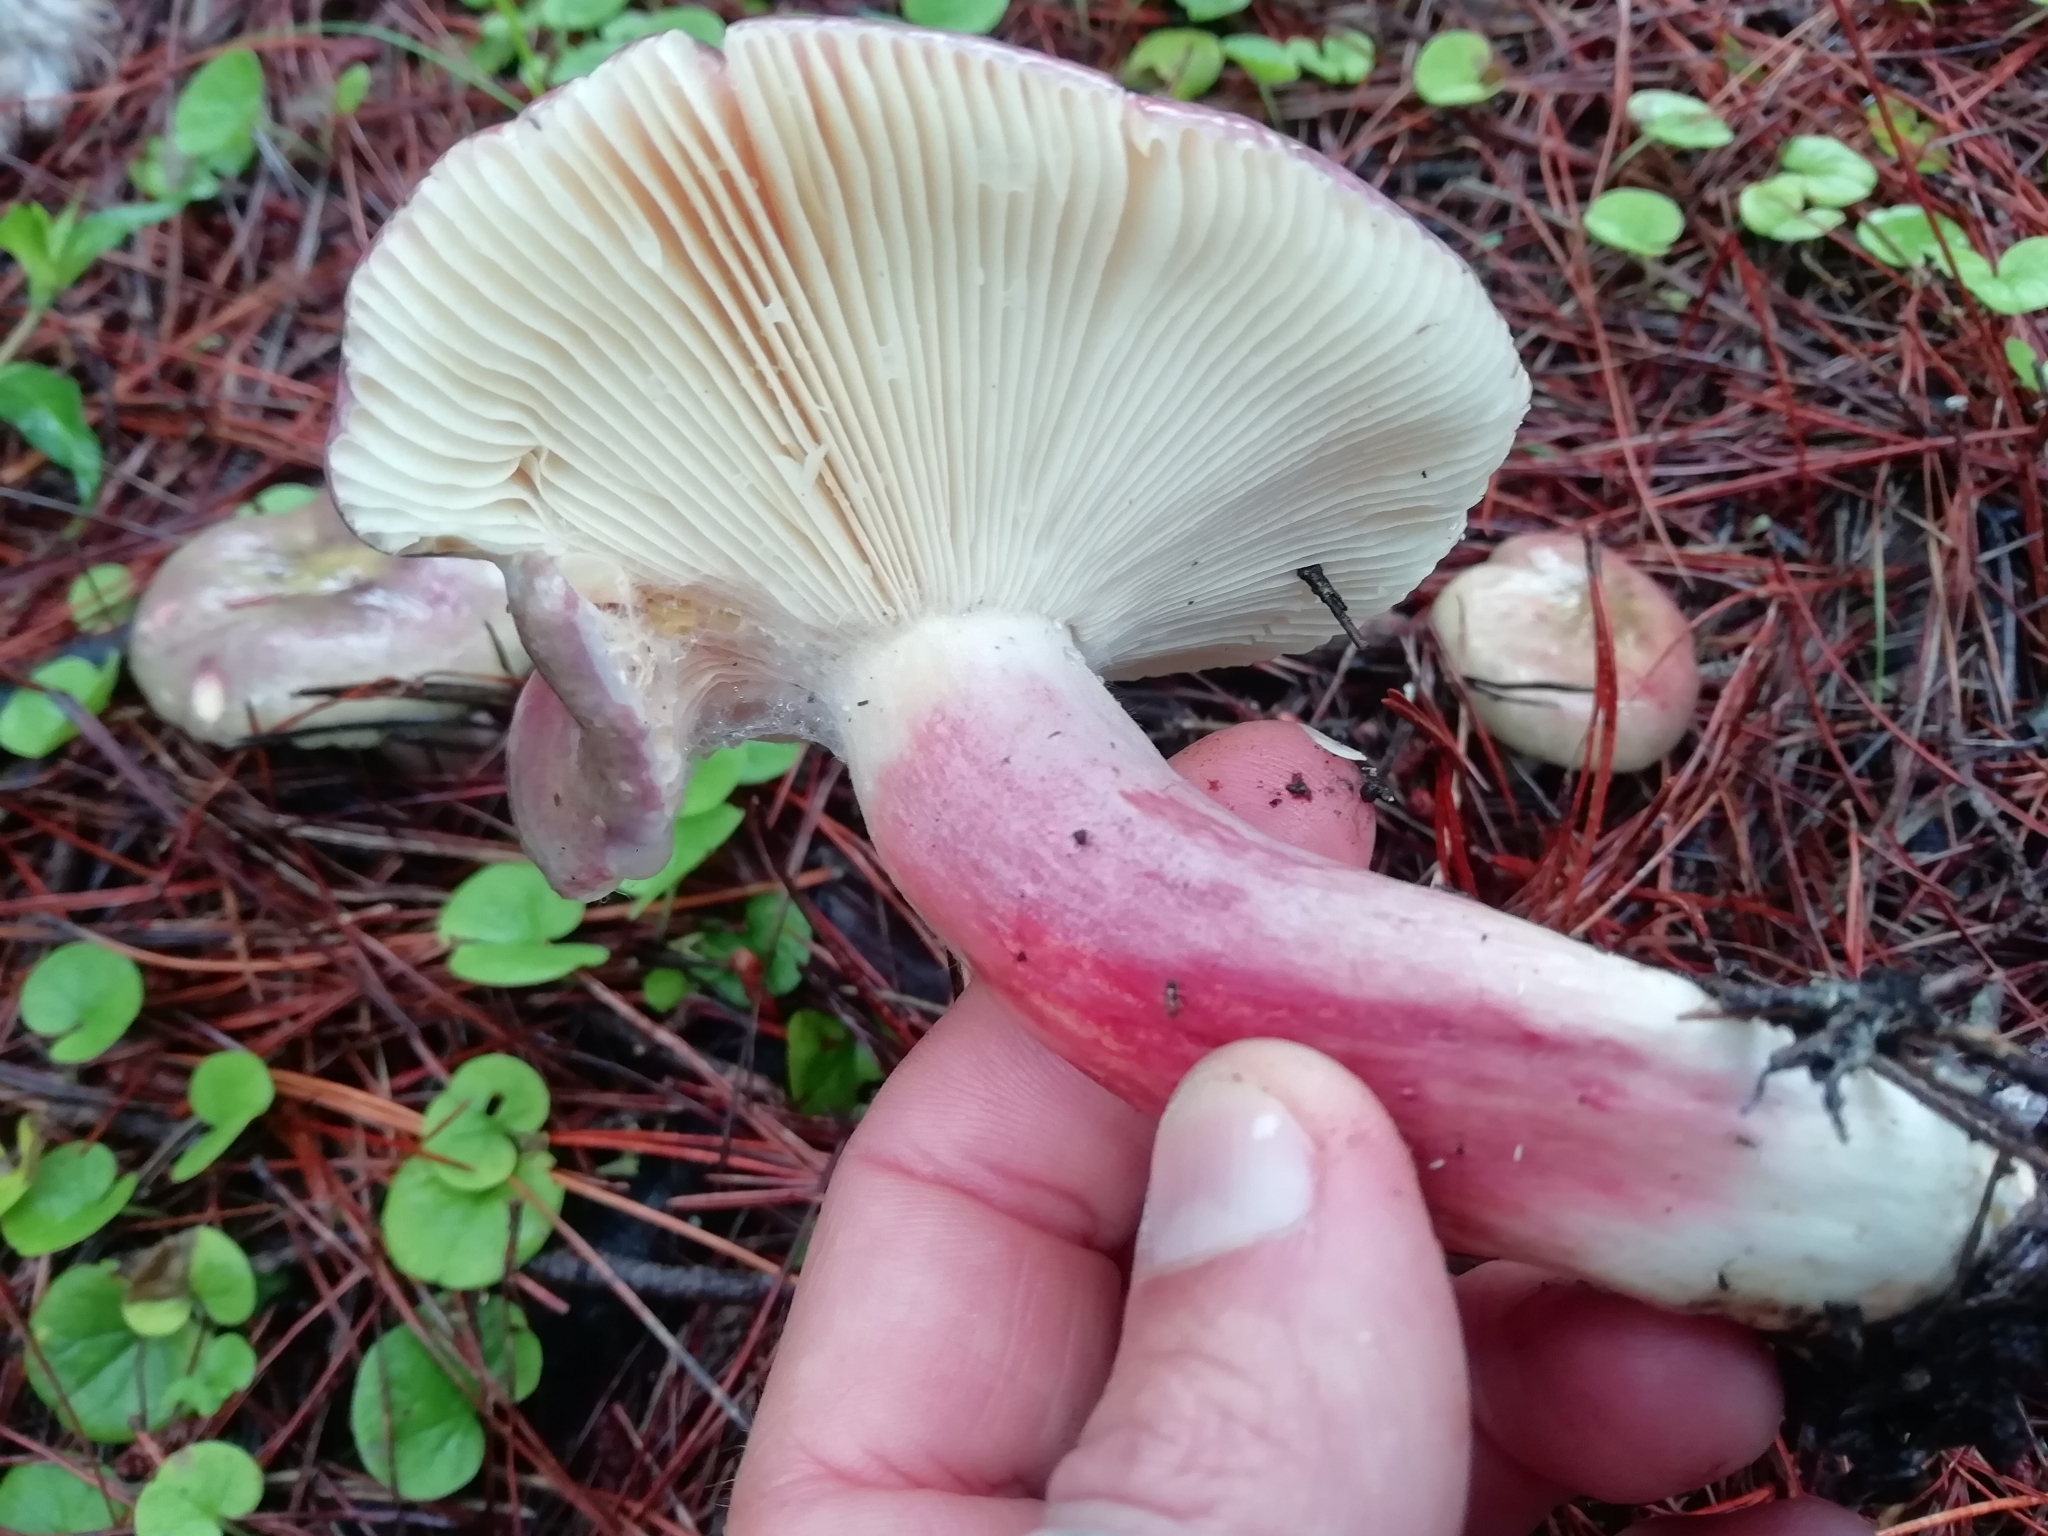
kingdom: Fungi
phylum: Basidiomycota
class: Agaricomycetes
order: Russulales
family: Russulaceae
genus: Russula
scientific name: Russula sardonia
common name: Primrose brittlegill
